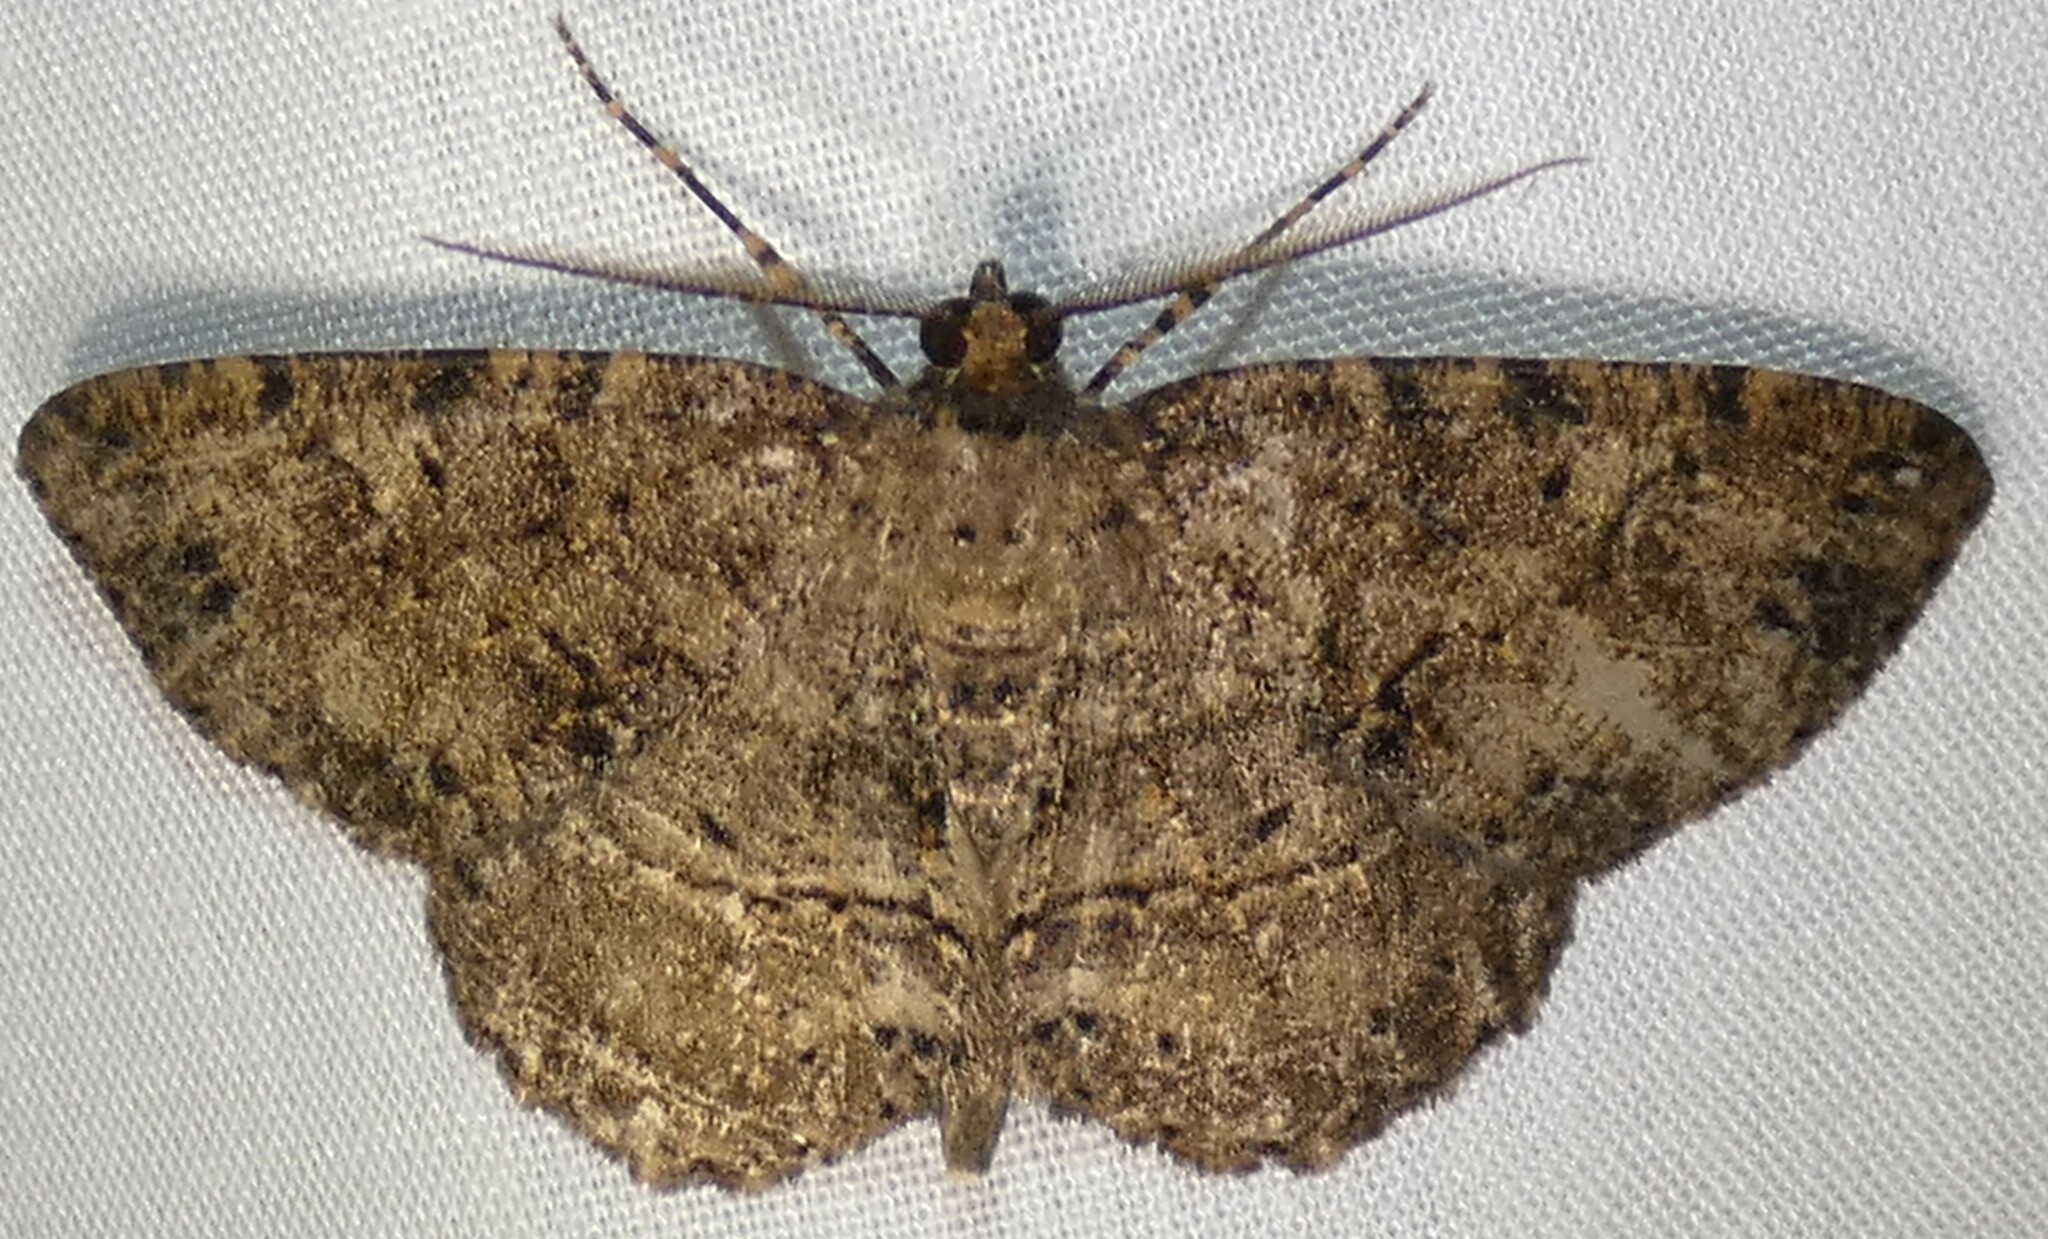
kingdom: Animalia
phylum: Arthropoda
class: Insecta
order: Lepidoptera
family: Geometridae
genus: Melanolophia
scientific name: Melanolophia canadaria
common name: Canadian melanolophia
